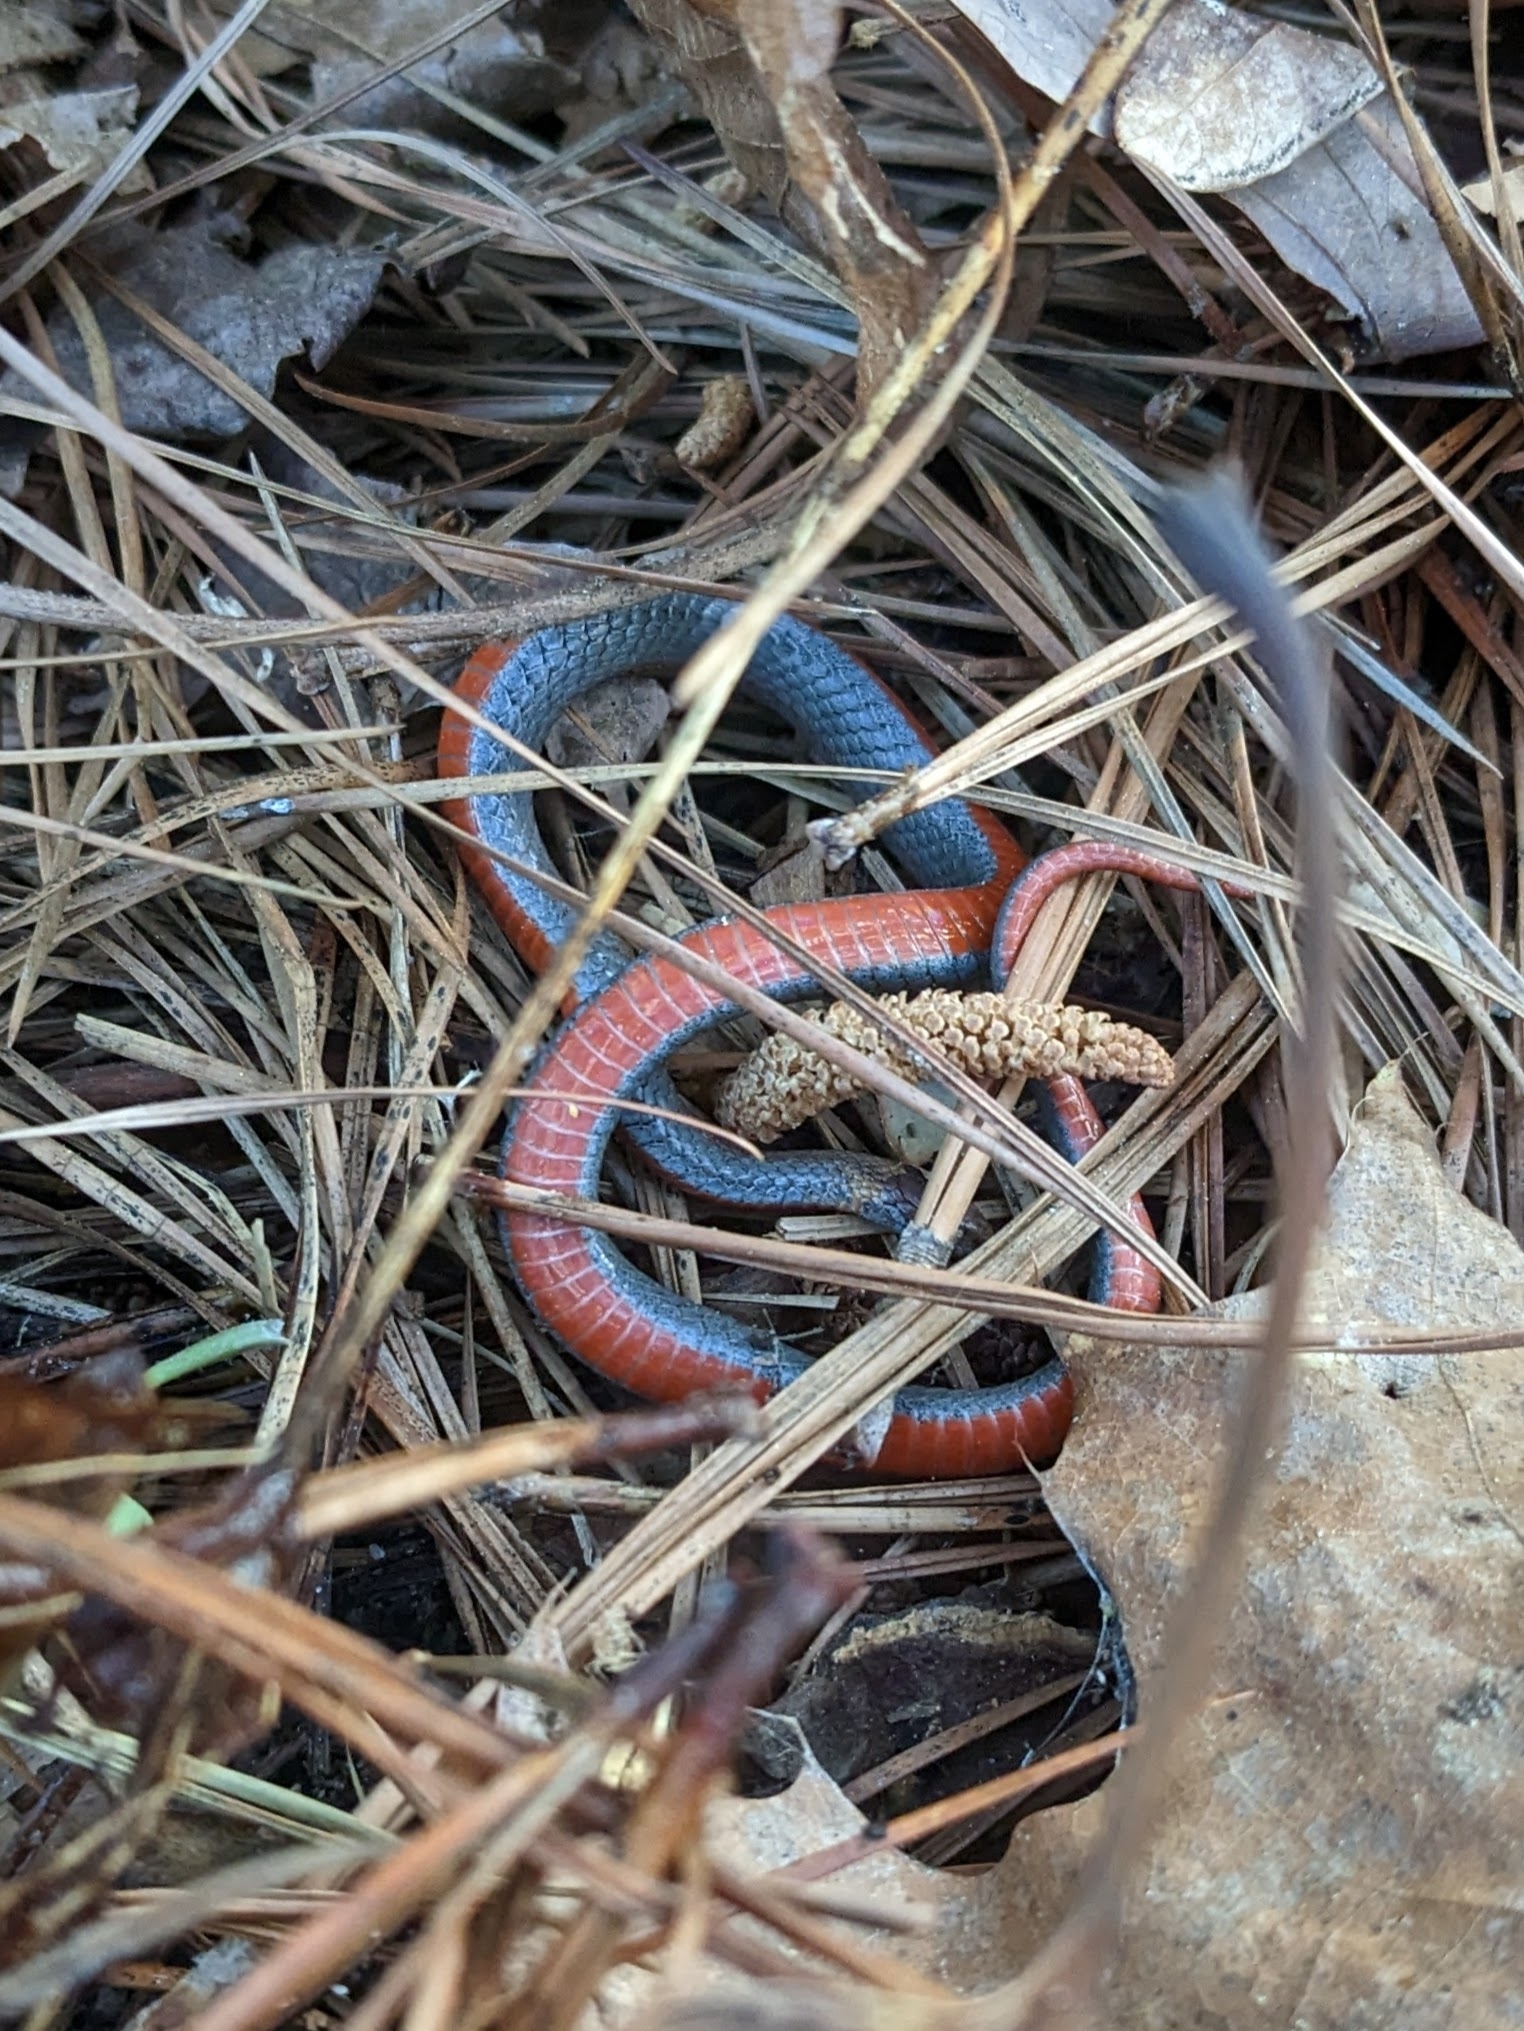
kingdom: Animalia
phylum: Chordata
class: Squamata
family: Colubridae
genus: Storeria
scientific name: Storeria occipitomaculata
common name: Redbelly snake
